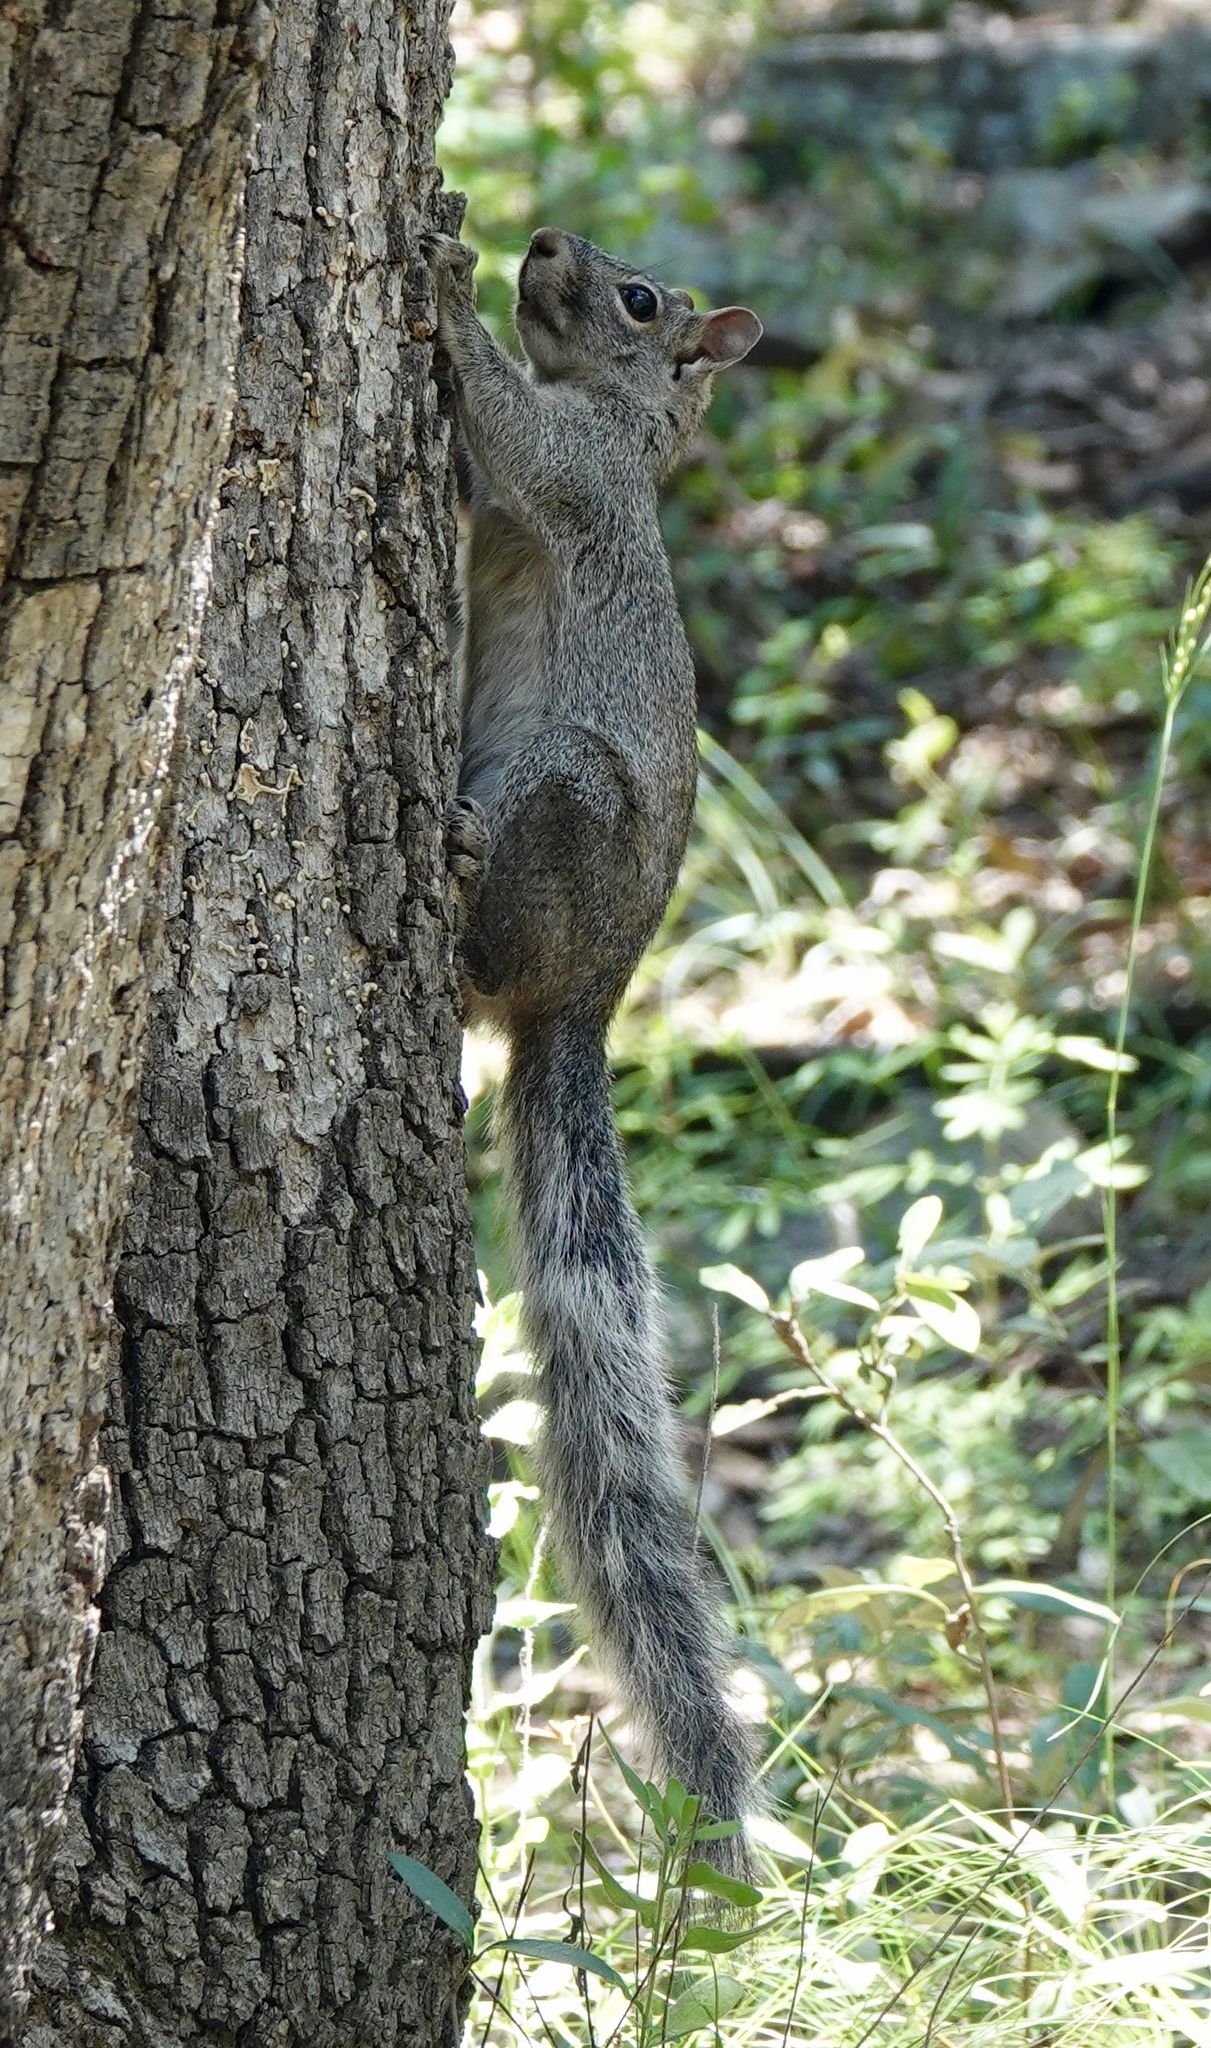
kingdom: Animalia
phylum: Chordata
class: Mammalia
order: Rodentia
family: Sciuridae
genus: Sciurus
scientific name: Sciurus arizonensis
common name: Arizona gray squirrel
